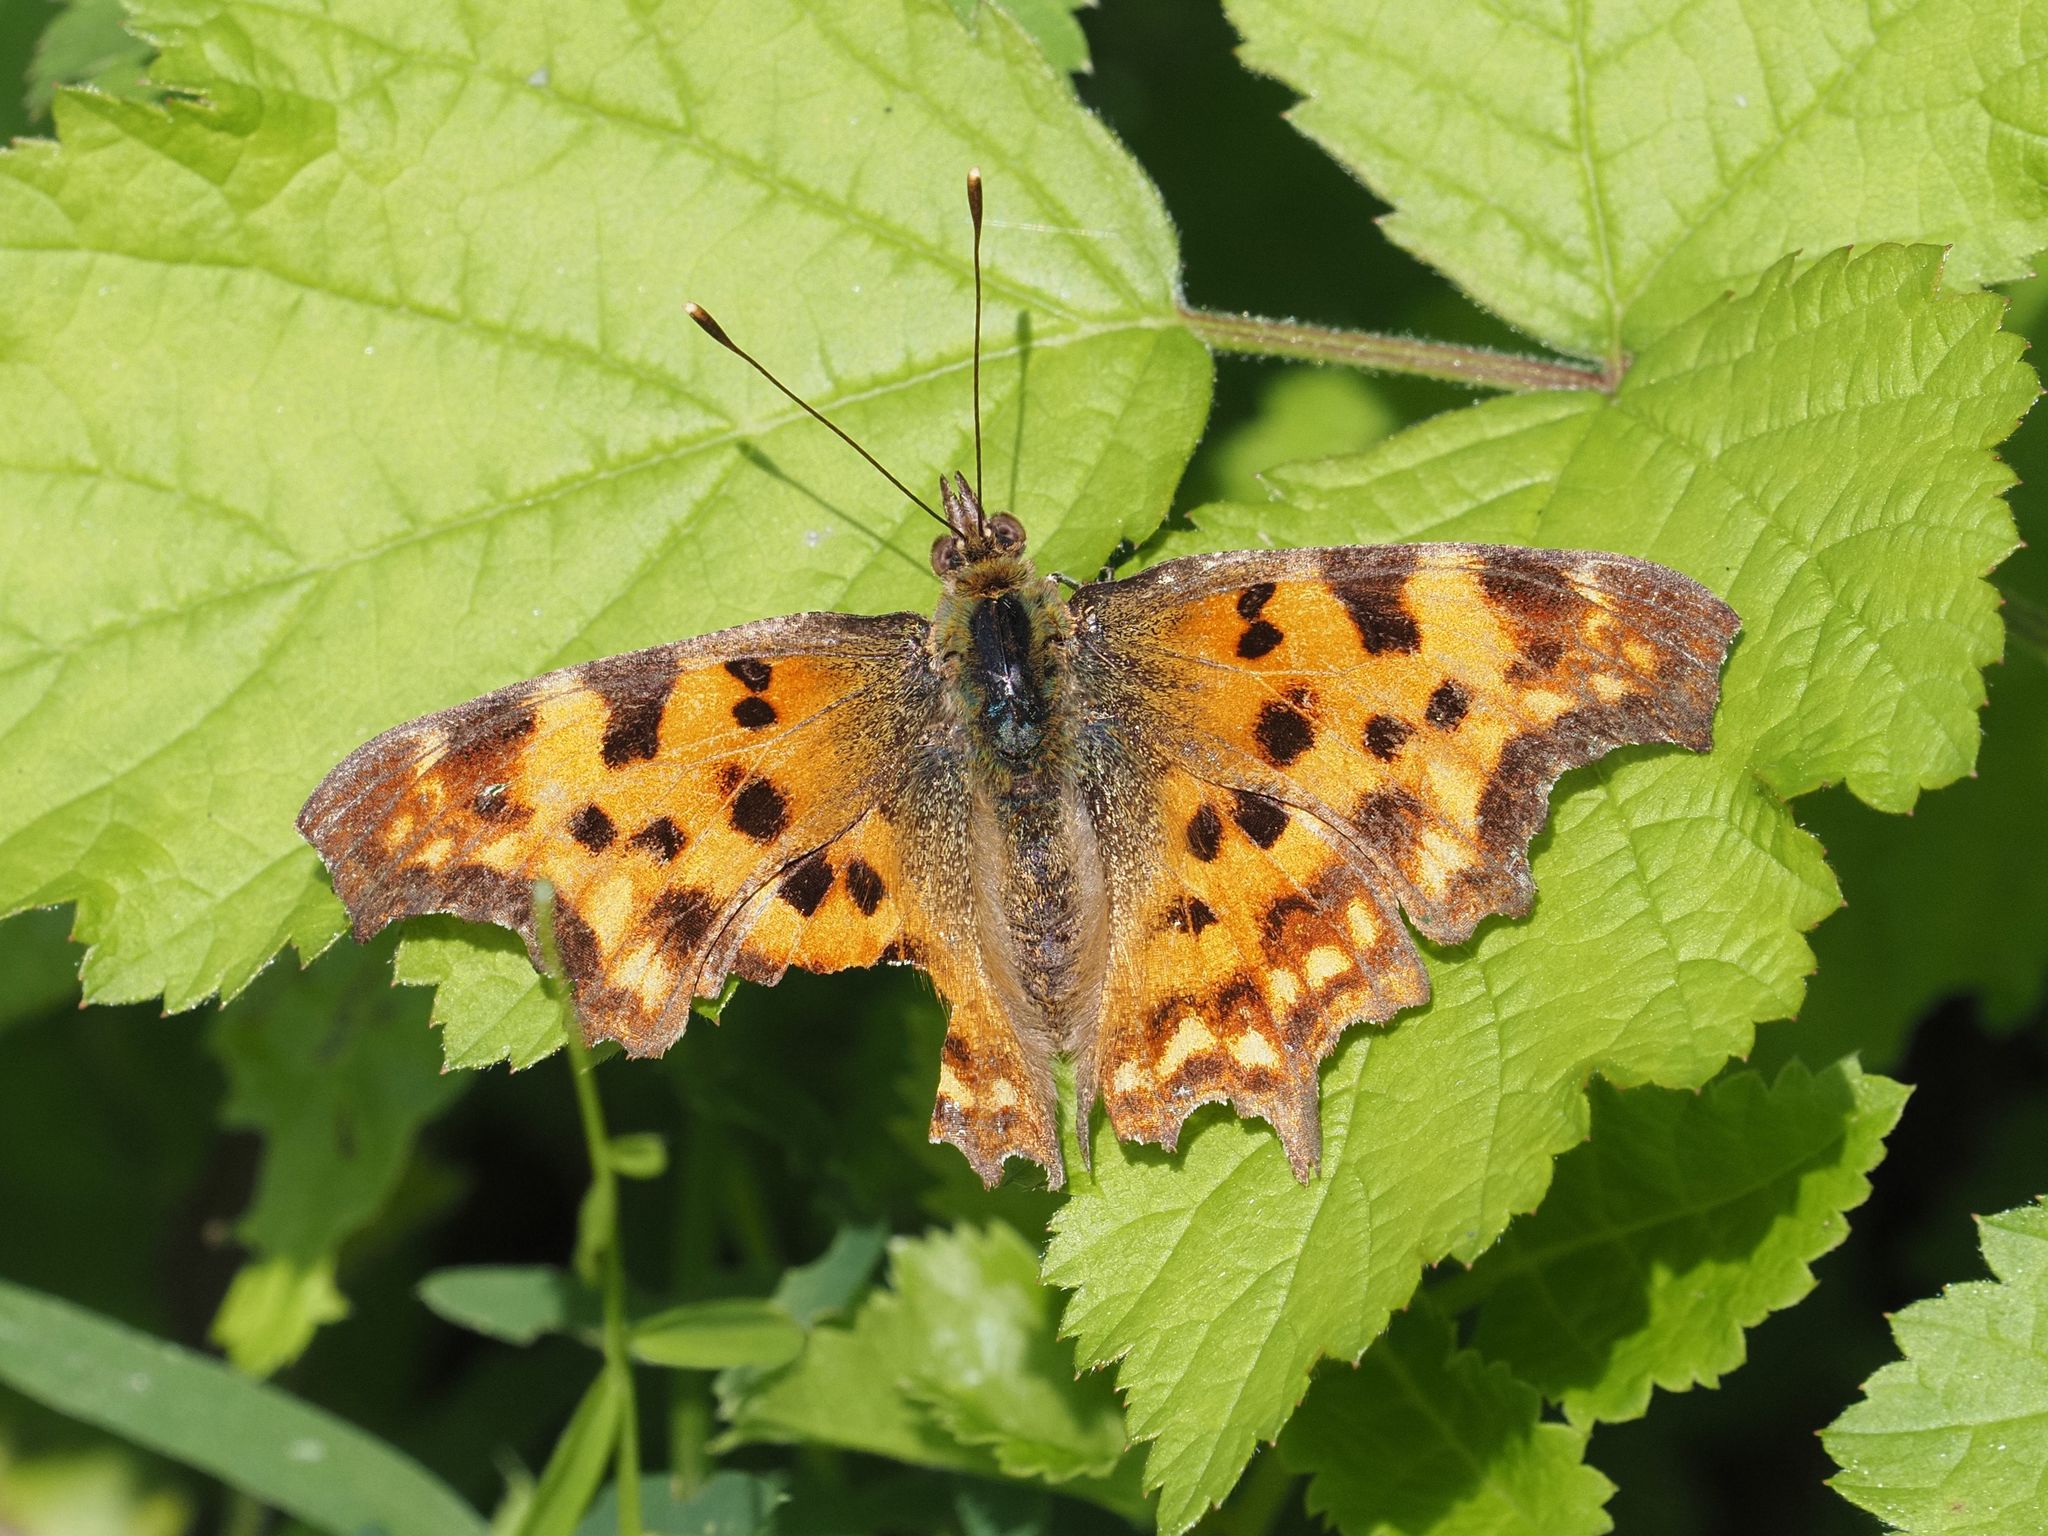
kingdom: Animalia
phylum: Arthropoda
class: Insecta
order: Lepidoptera
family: Nymphalidae
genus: Polygonia
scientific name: Polygonia c-album
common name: Comma
